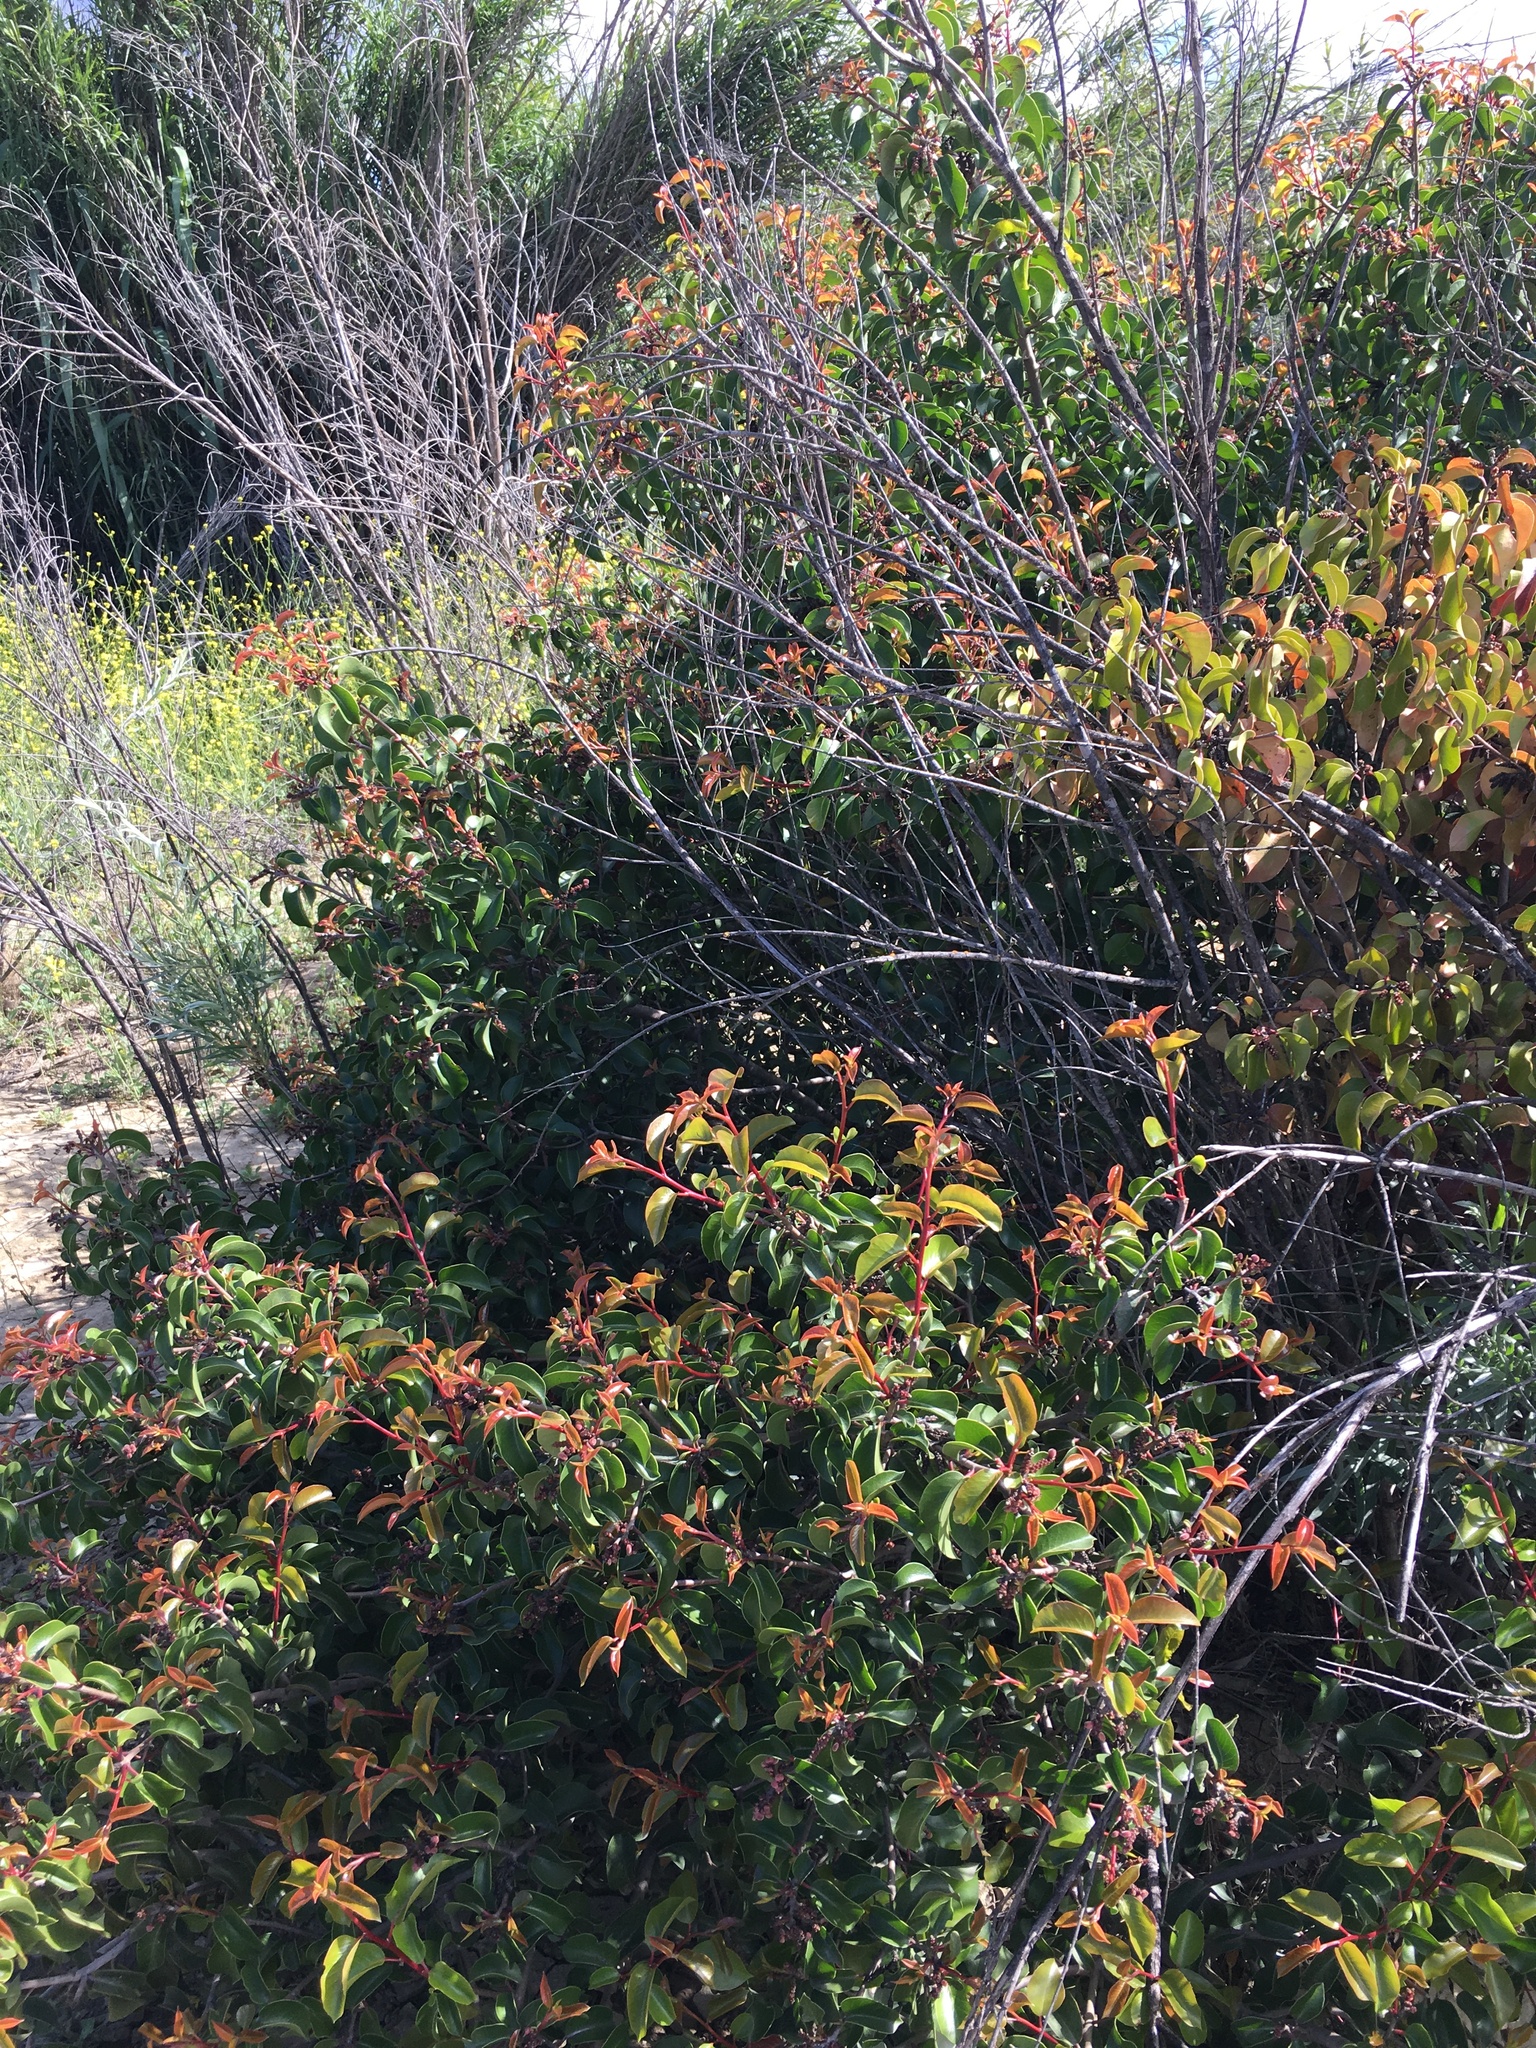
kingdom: Plantae
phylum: Tracheophyta
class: Magnoliopsida
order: Sapindales
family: Anacardiaceae
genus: Rhus
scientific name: Rhus ovata
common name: Sugar sumac
